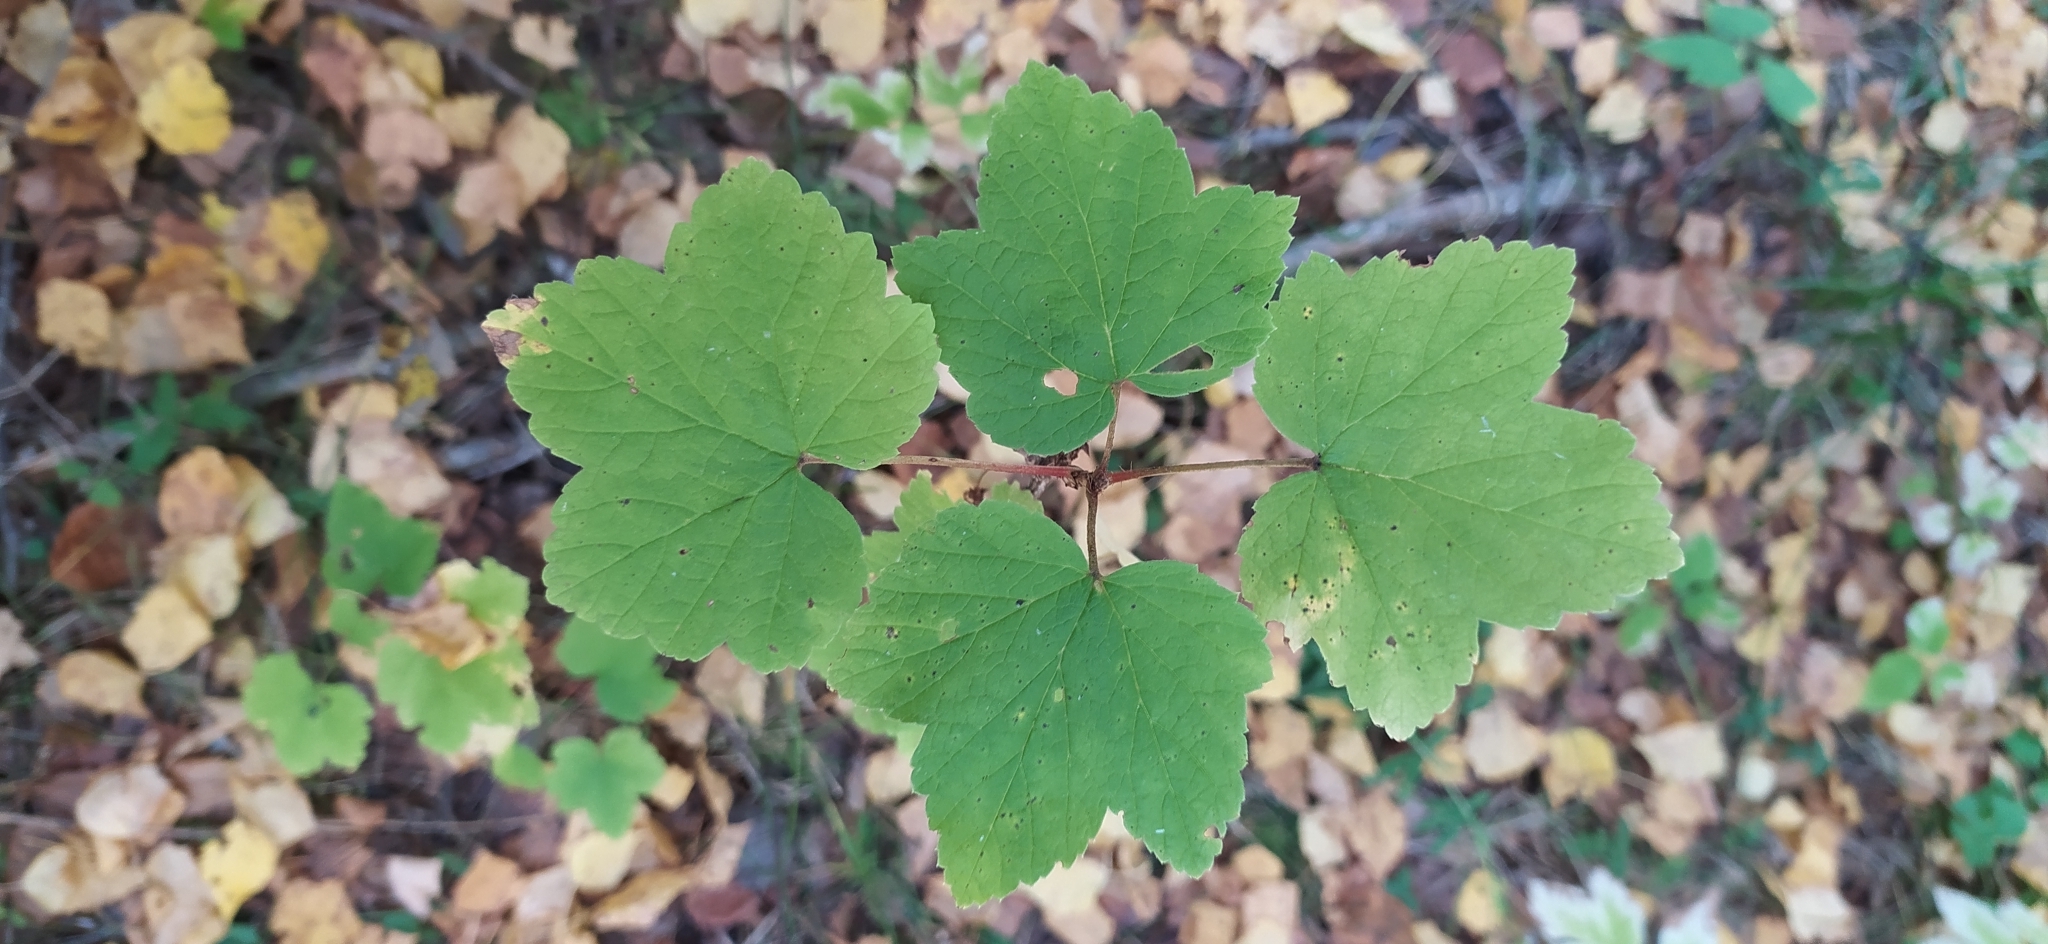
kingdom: Plantae
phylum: Tracheophyta
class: Magnoliopsida
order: Saxifragales
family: Grossulariaceae
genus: Ribes
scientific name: Ribes spicatum
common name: Downy currant
